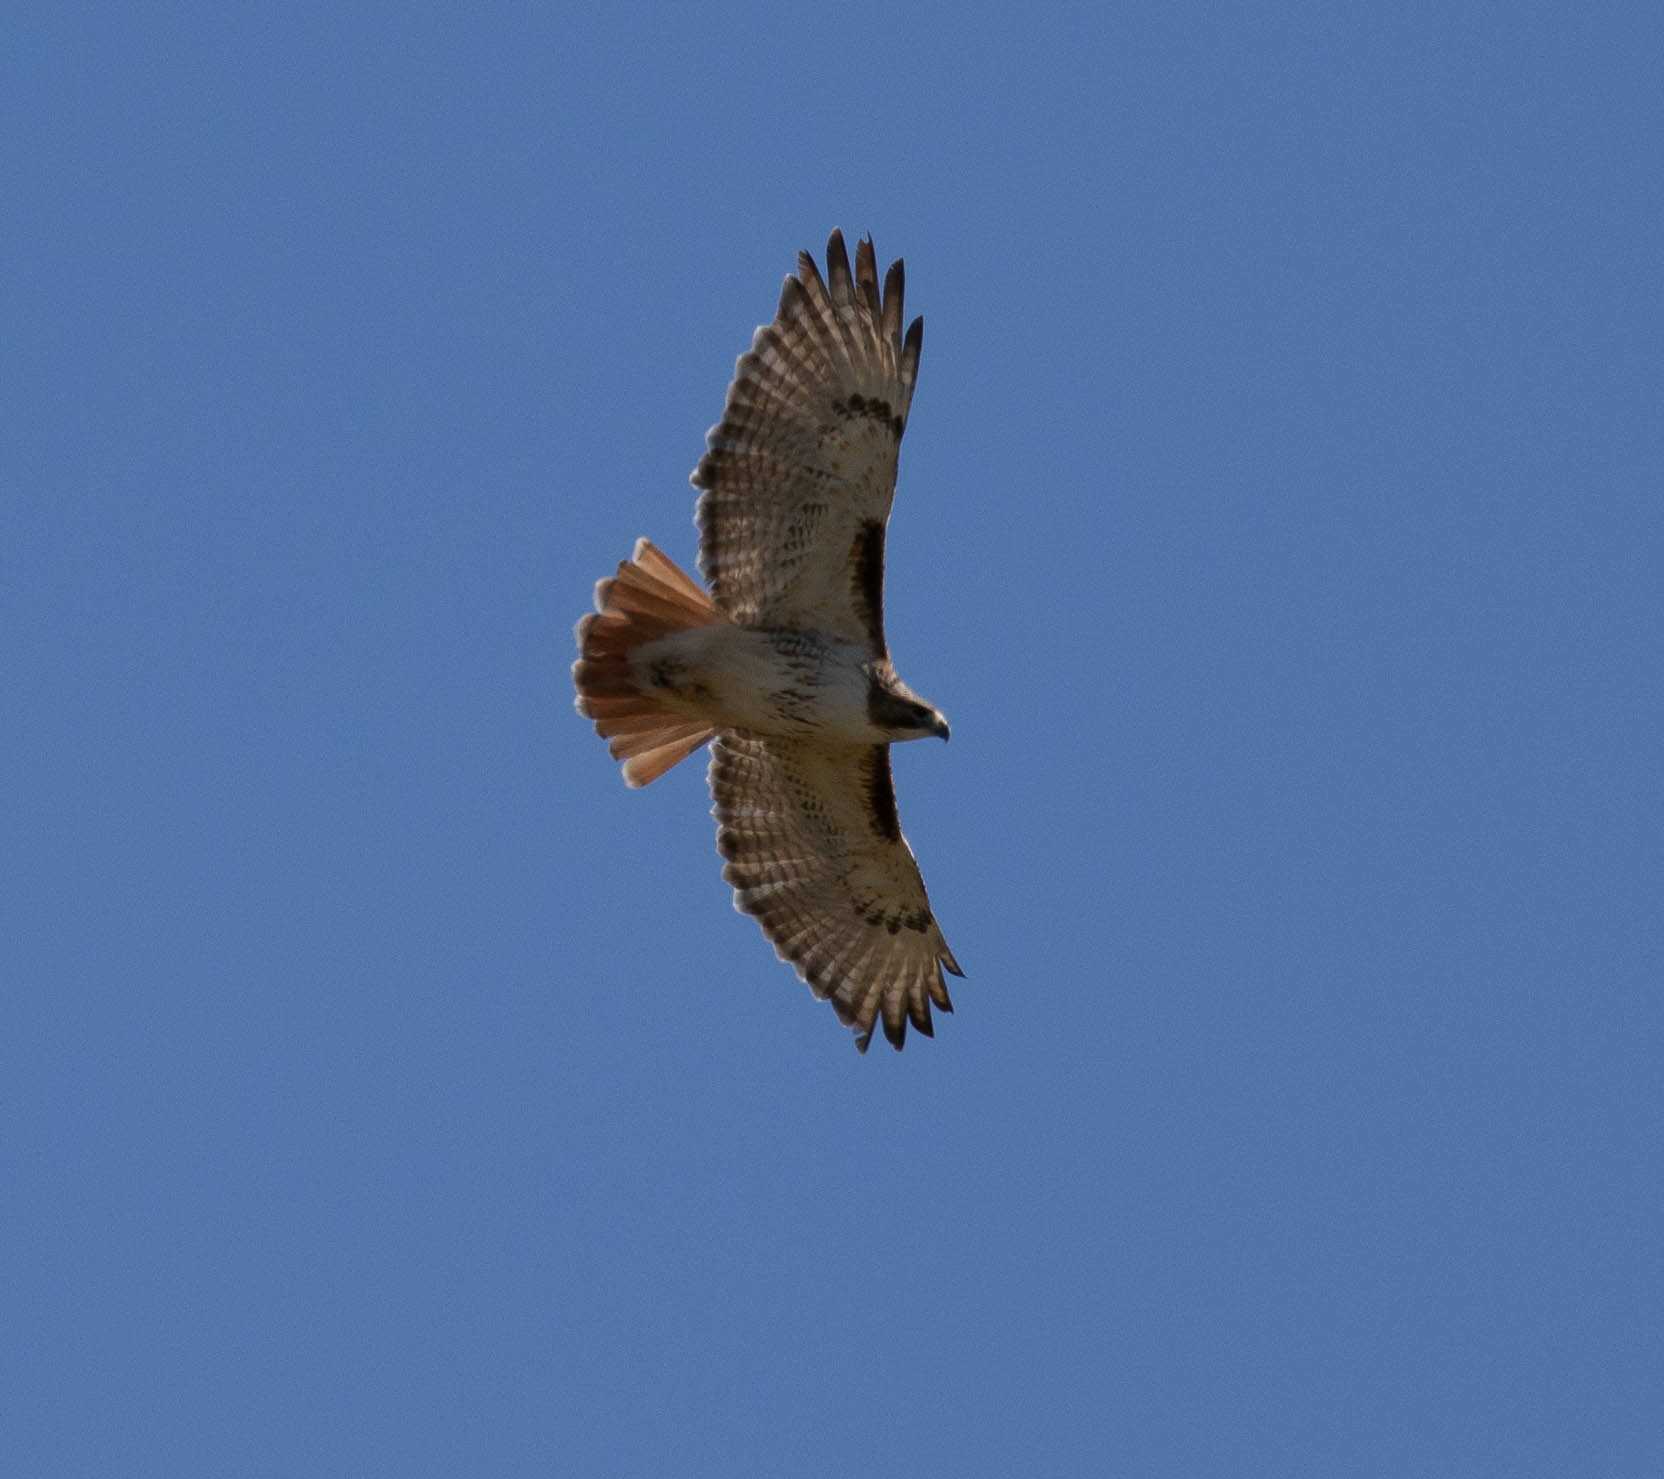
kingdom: Animalia
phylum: Chordata
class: Aves
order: Accipitriformes
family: Accipitridae
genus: Buteo
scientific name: Buteo jamaicensis
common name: Red-tailed hawk
